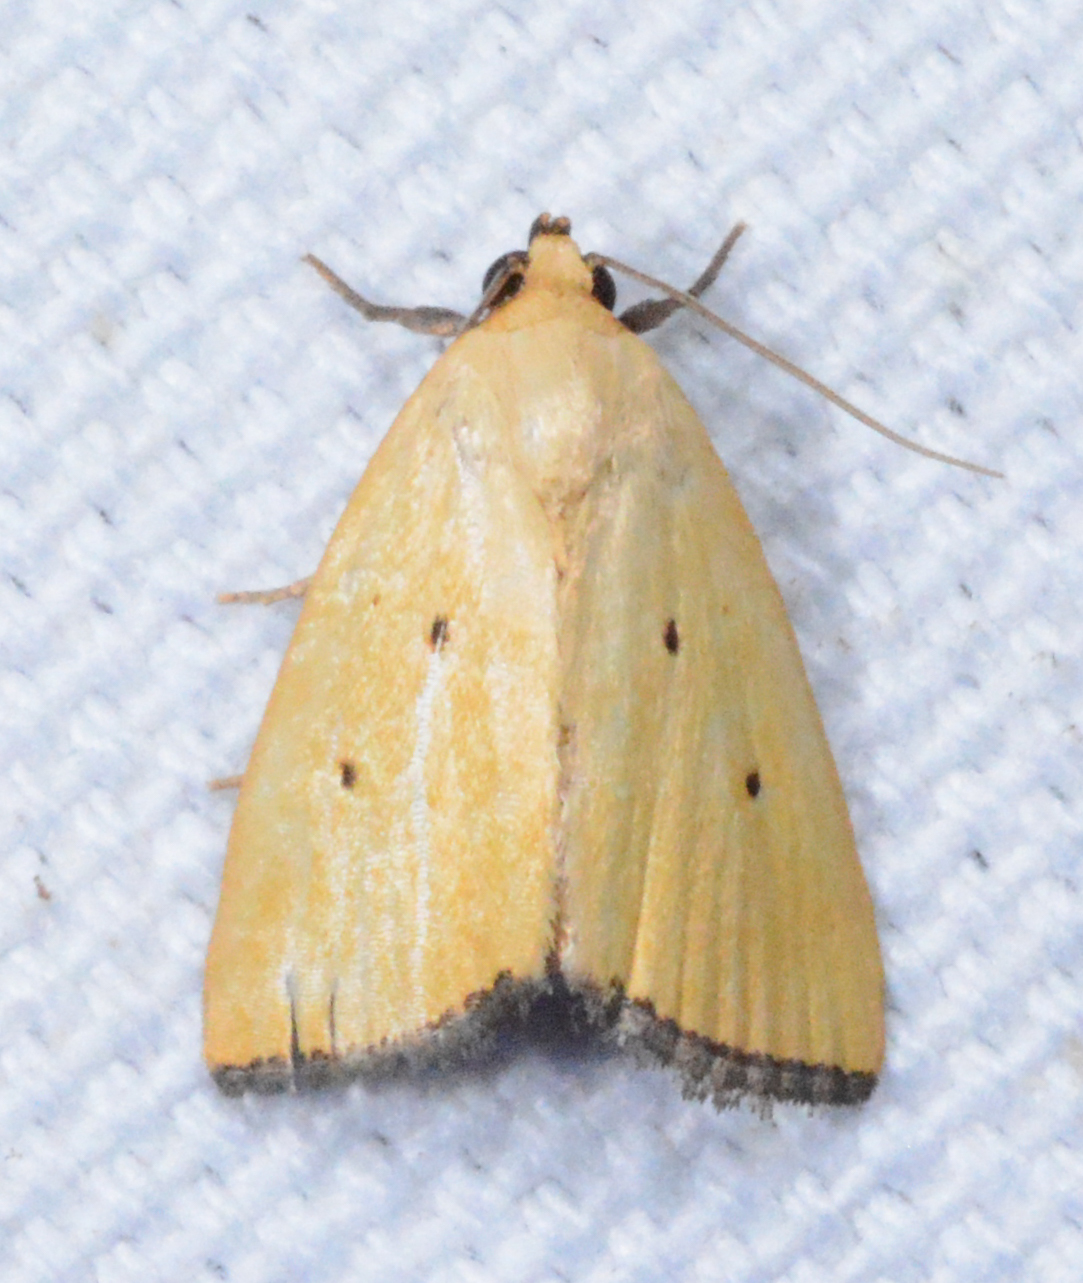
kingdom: Animalia
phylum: Arthropoda
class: Insecta
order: Lepidoptera
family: Noctuidae
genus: Marimatha
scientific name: Marimatha nigrofimbria
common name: Black-bordered lemon moth
